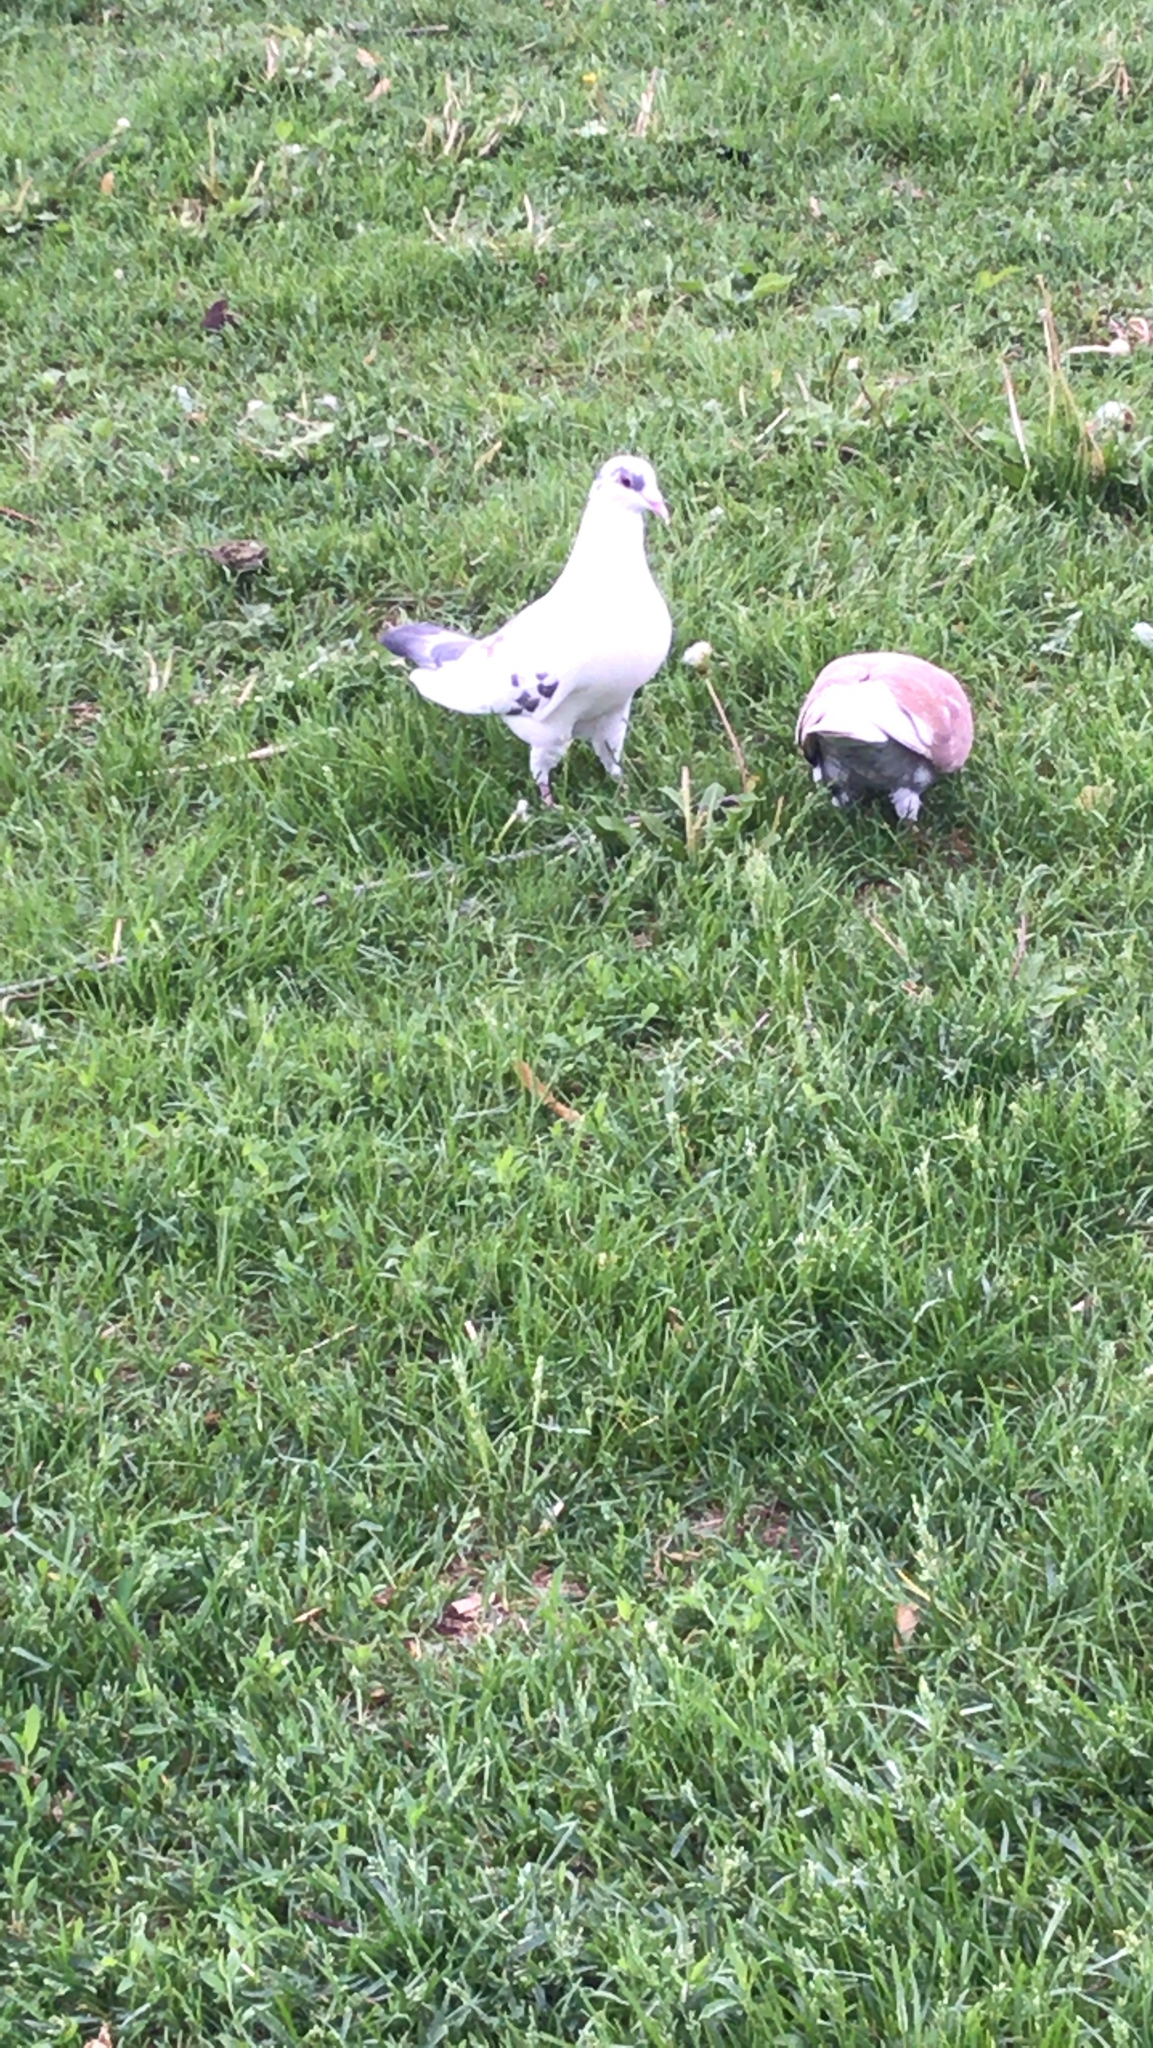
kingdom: Animalia
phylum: Chordata
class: Aves
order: Columbiformes
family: Columbidae
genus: Columba
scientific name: Columba livia
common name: Rock pigeon
